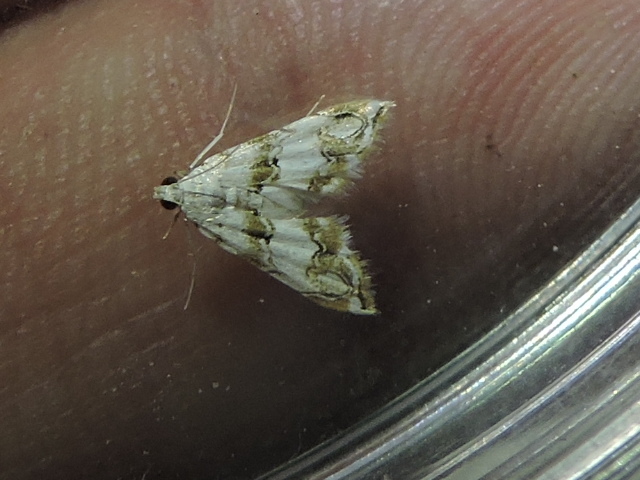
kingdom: Animalia
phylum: Arthropoda
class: Insecta
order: Lepidoptera
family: Crambidae
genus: Oxyelophila
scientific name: Oxyelophila callista
